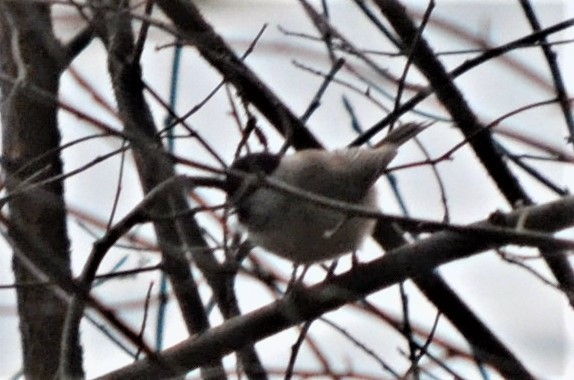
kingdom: Animalia
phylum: Chordata
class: Aves
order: Passeriformes
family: Paridae
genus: Poecile
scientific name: Poecile palustris
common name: Marsh tit
